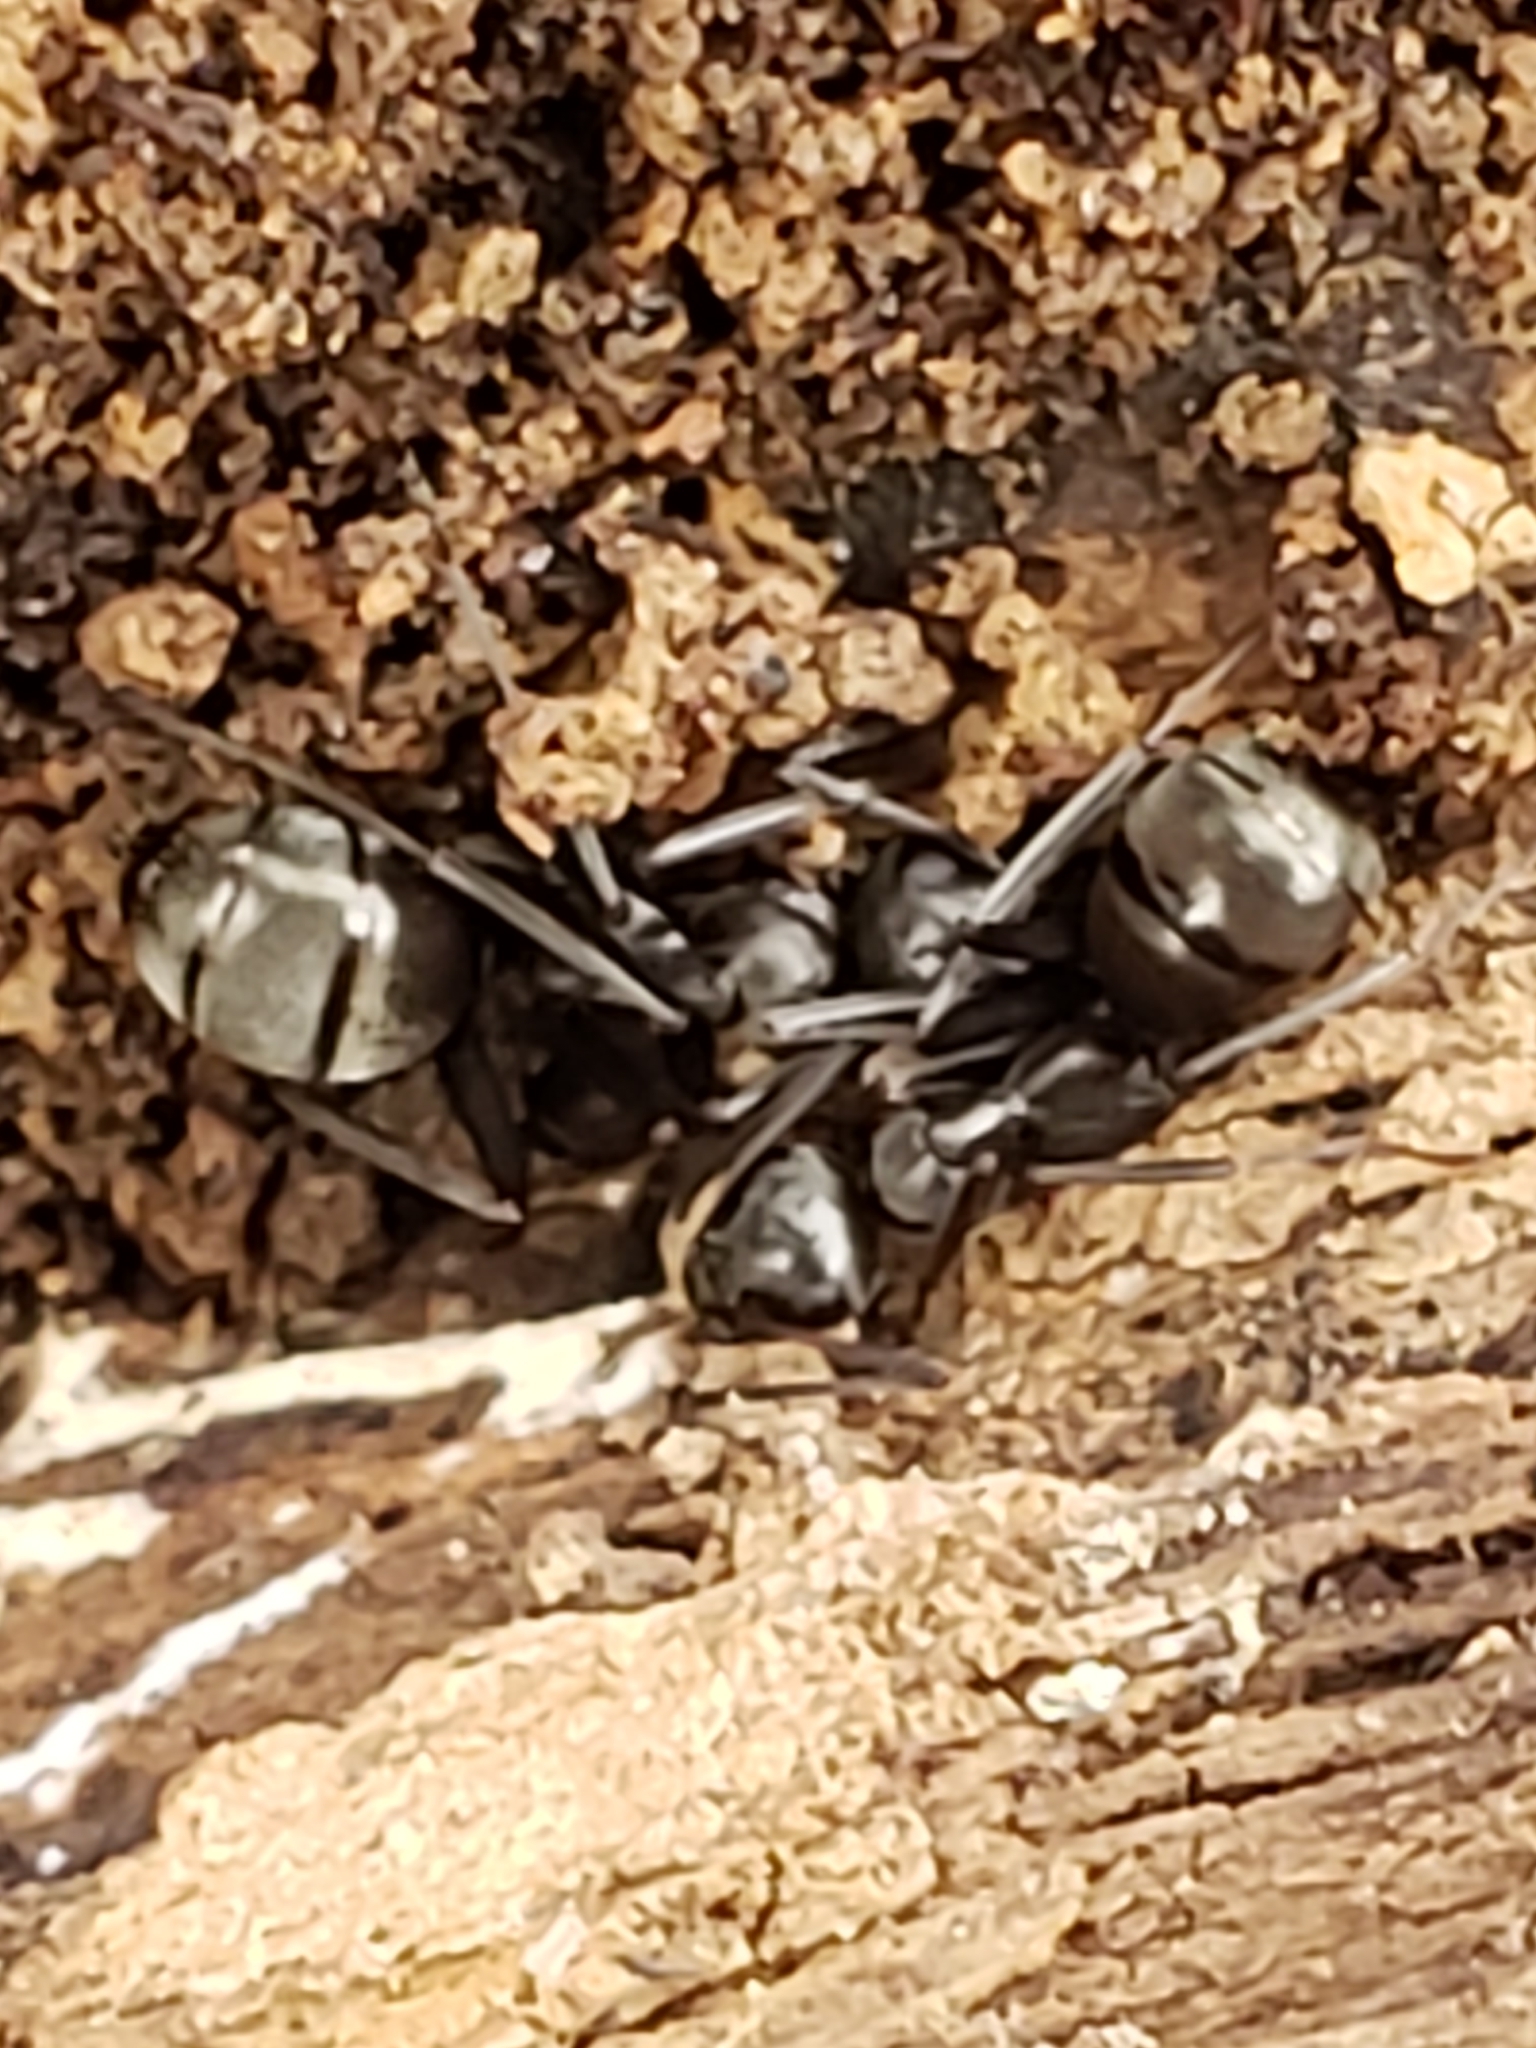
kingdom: Animalia
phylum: Arthropoda
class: Insecta
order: Hymenoptera
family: Formicidae
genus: Formica
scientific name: Formica subsericea
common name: Silky field ant
